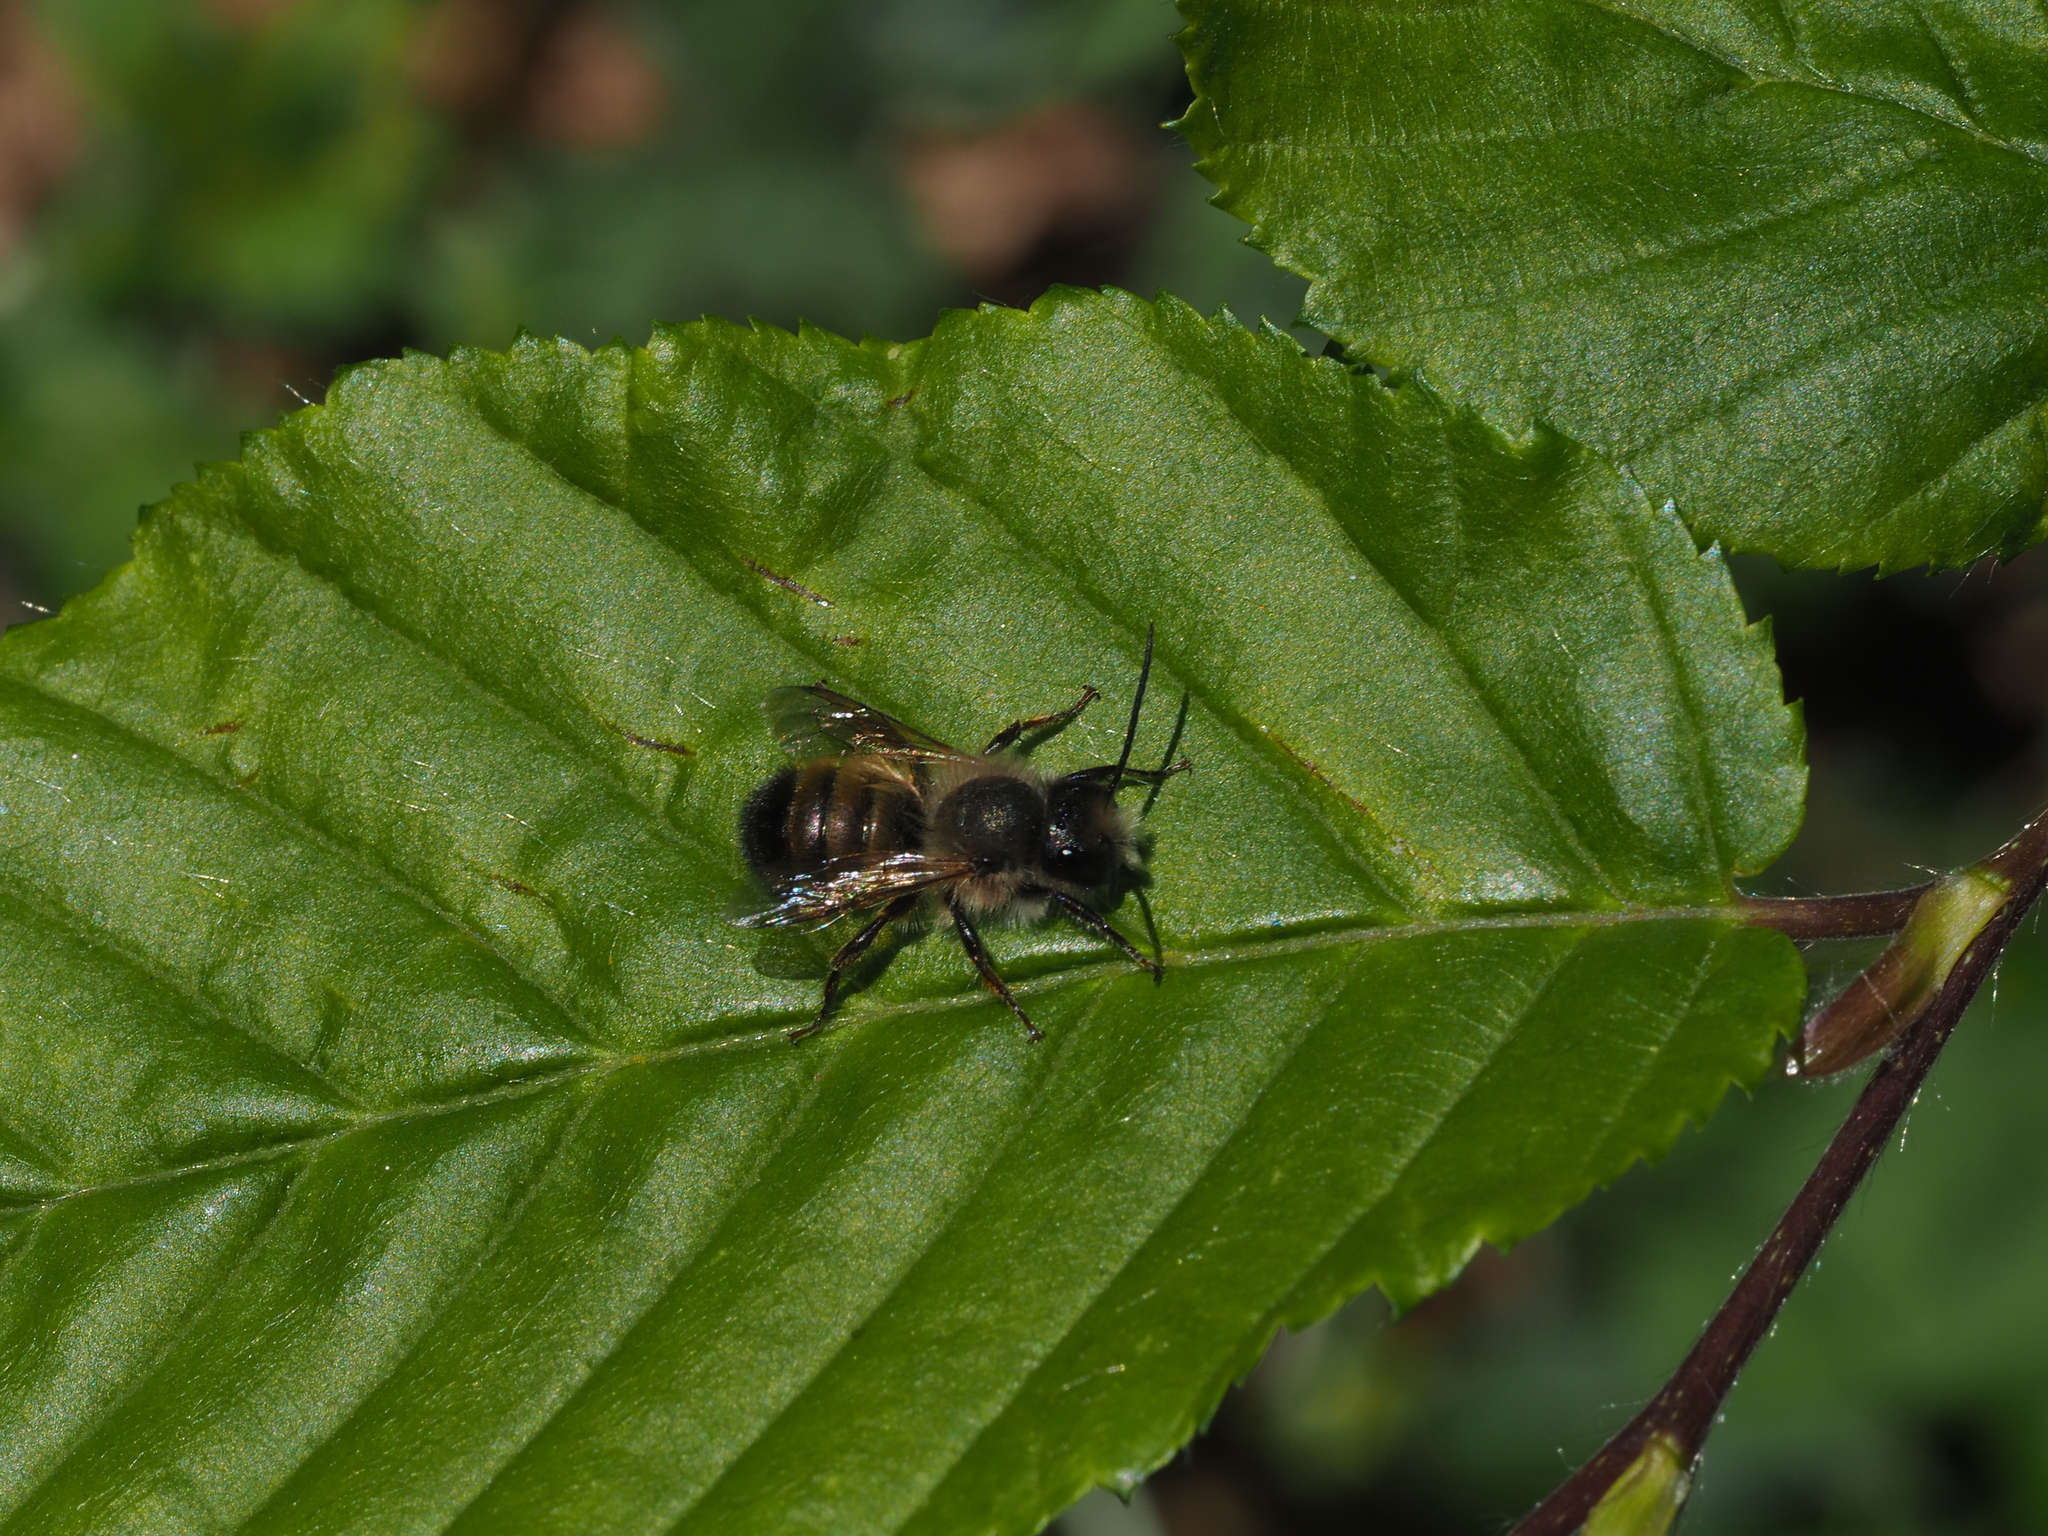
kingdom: Animalia
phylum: Arthropoda
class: Insecta
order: Hymenoptera
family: Megachilidae
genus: Osmia
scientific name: Osmia bicornis
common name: Red mason bee
